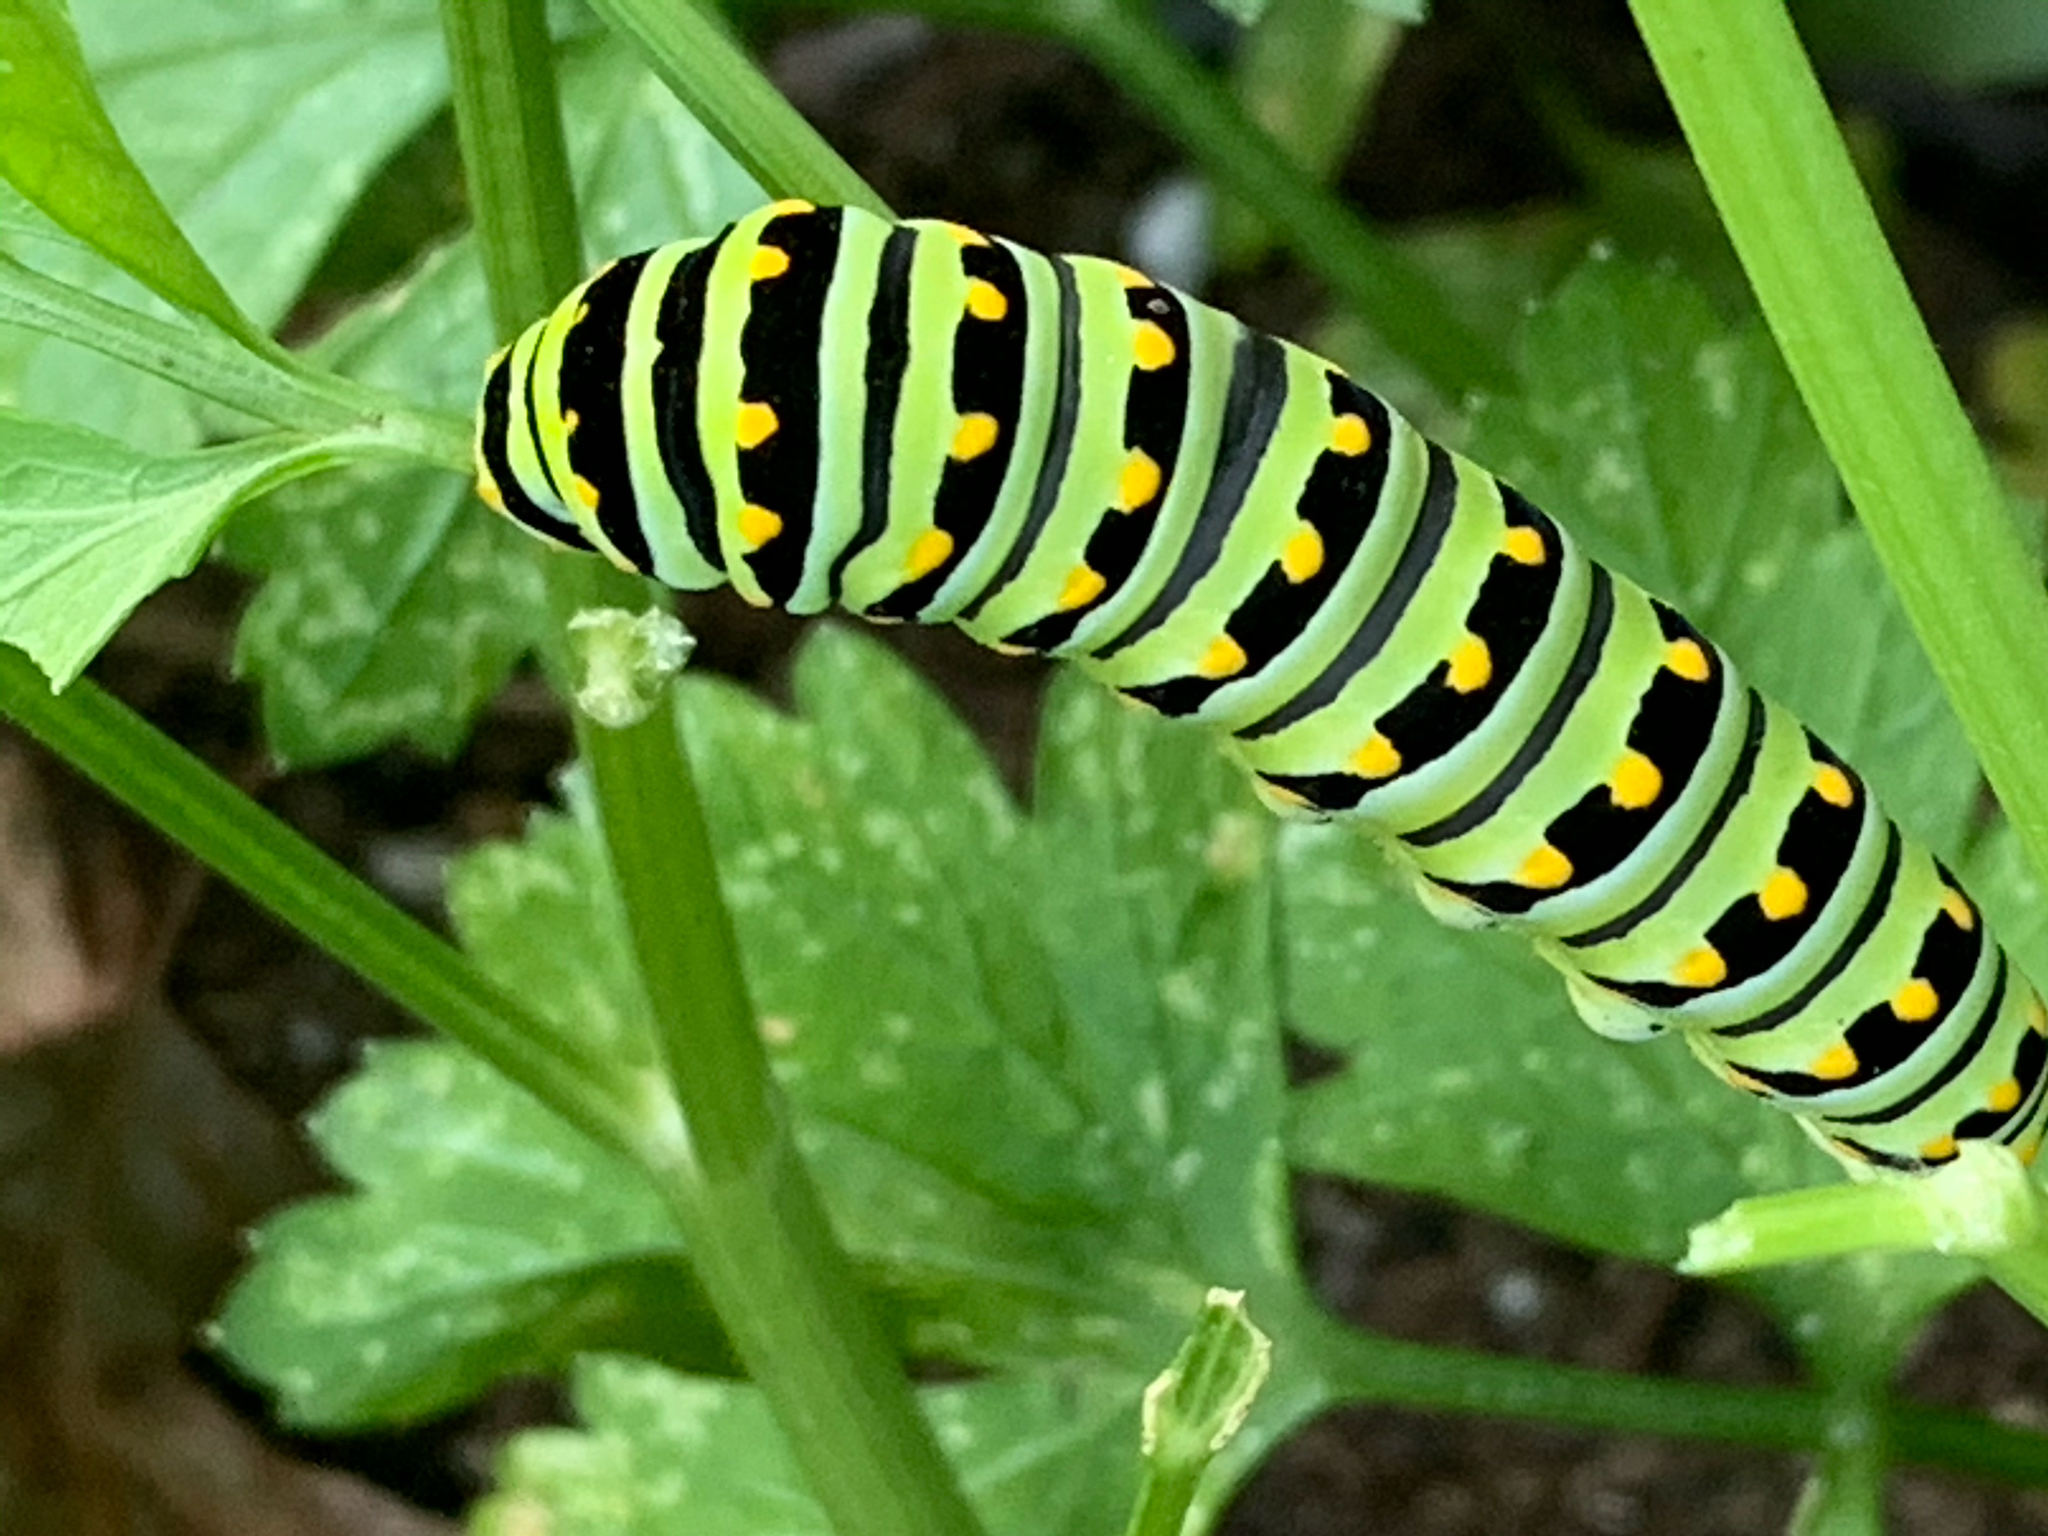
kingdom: Animalia
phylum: Arthropoda
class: Insecta
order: Lepidoptera
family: Papilionidae
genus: Papilio
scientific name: Papilio polyxenes
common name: Black swallowtail
